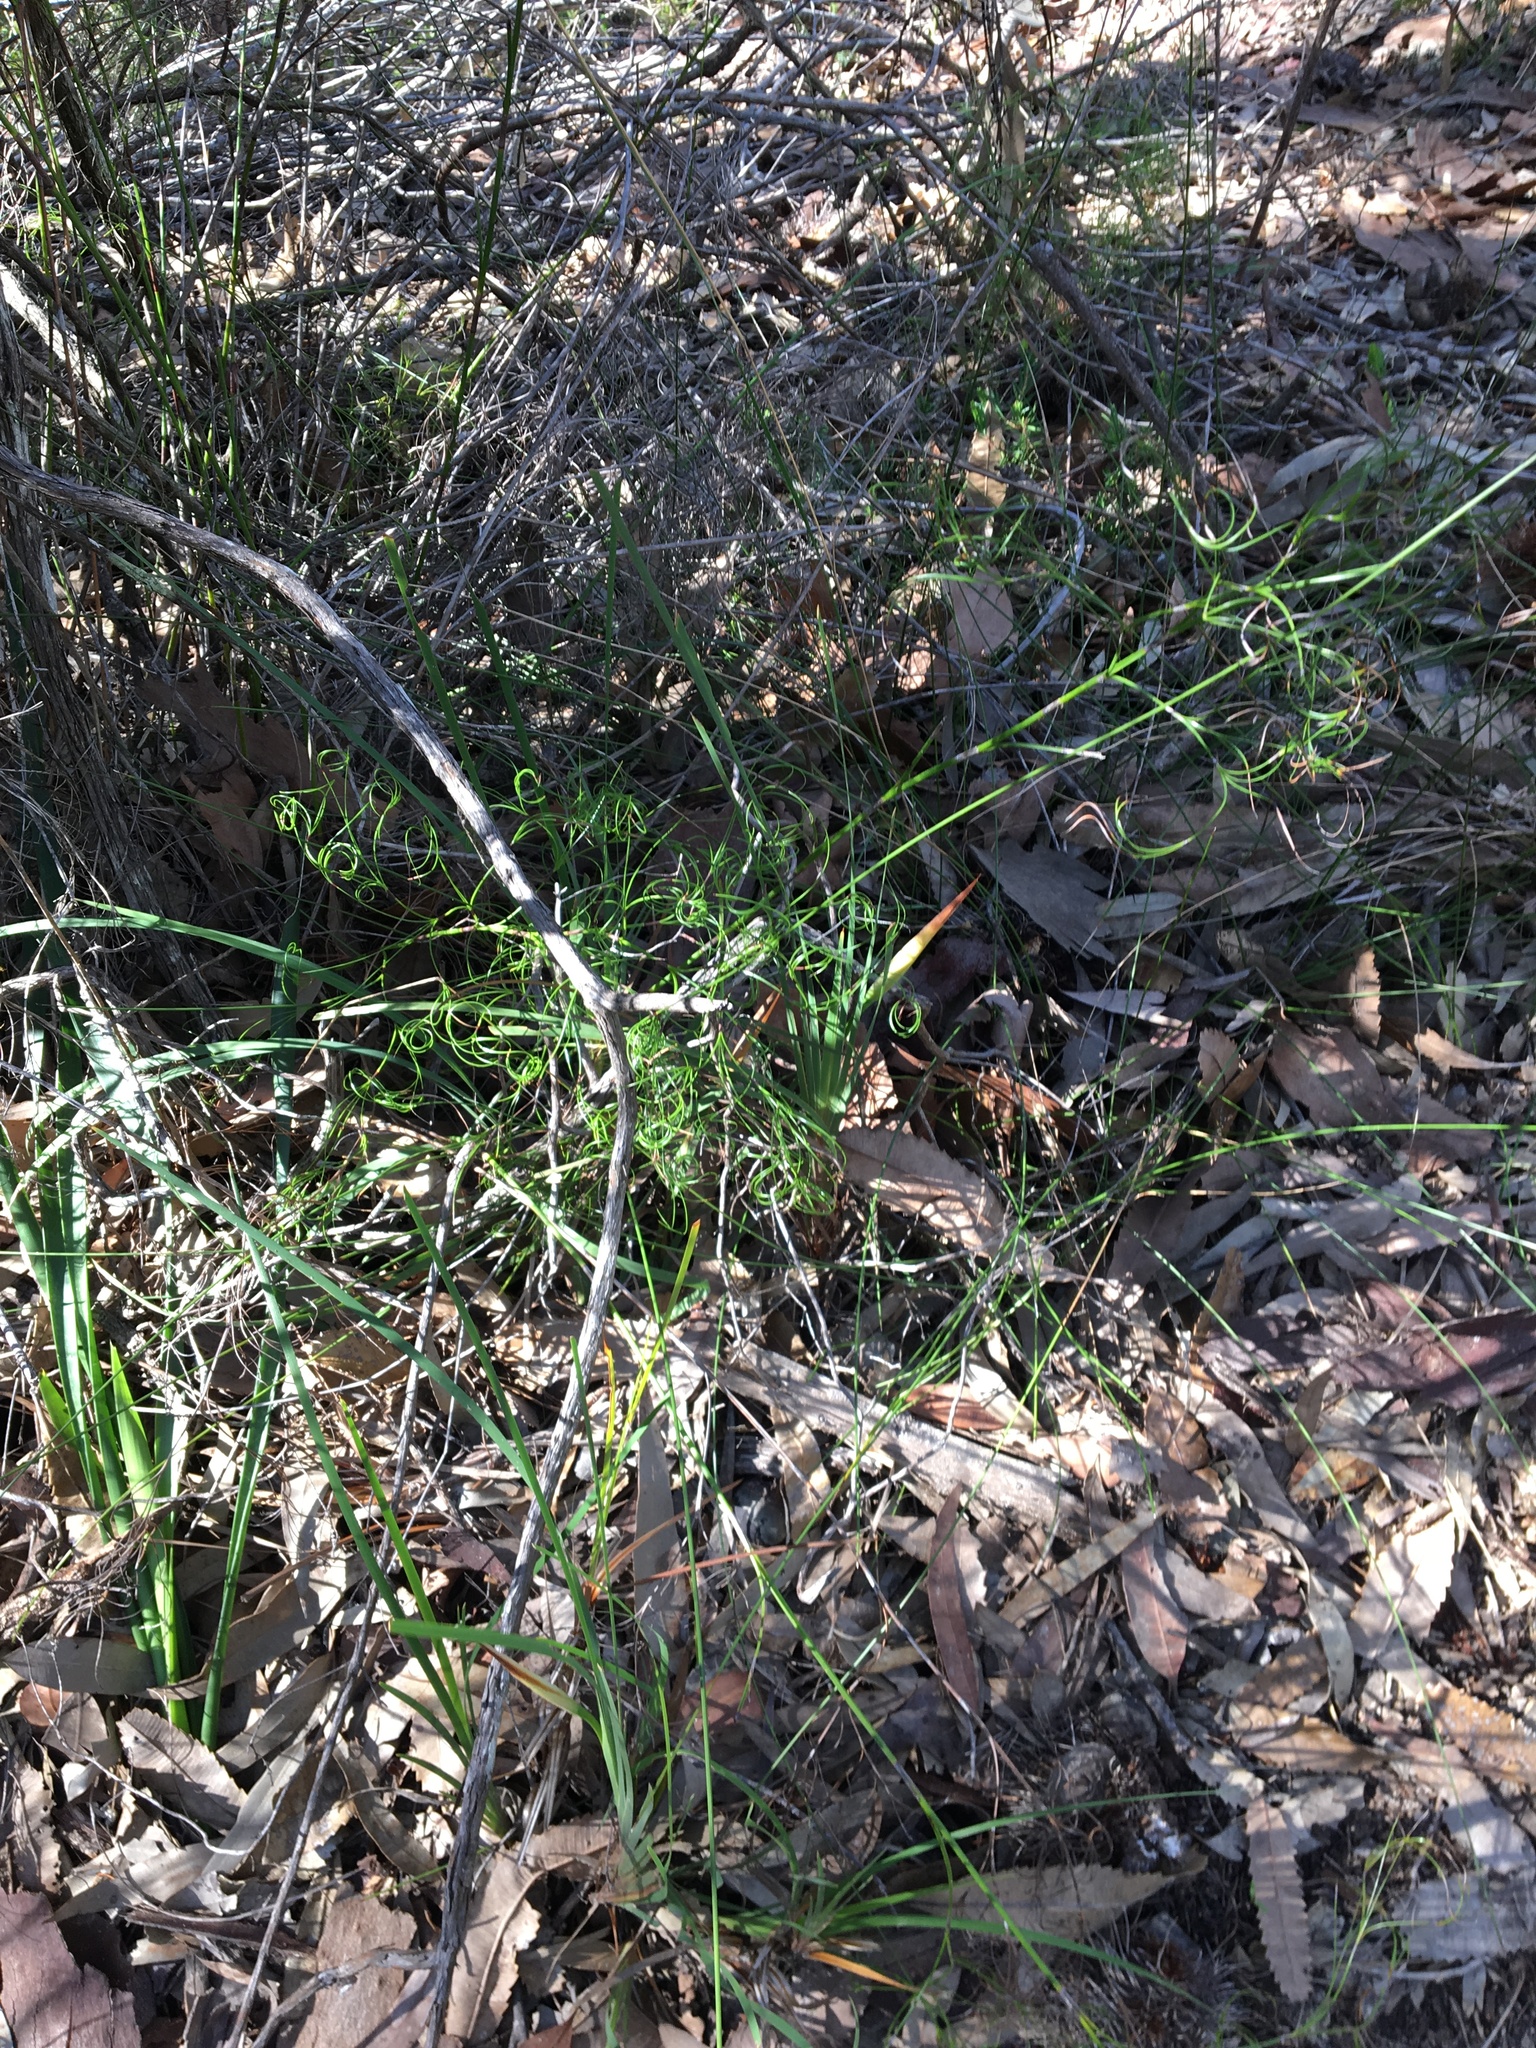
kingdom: Plantae
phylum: Tracheophyta
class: Liliopsida
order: Poales
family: Cyperaceae
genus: Caustis
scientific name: Caustis flexuosa
